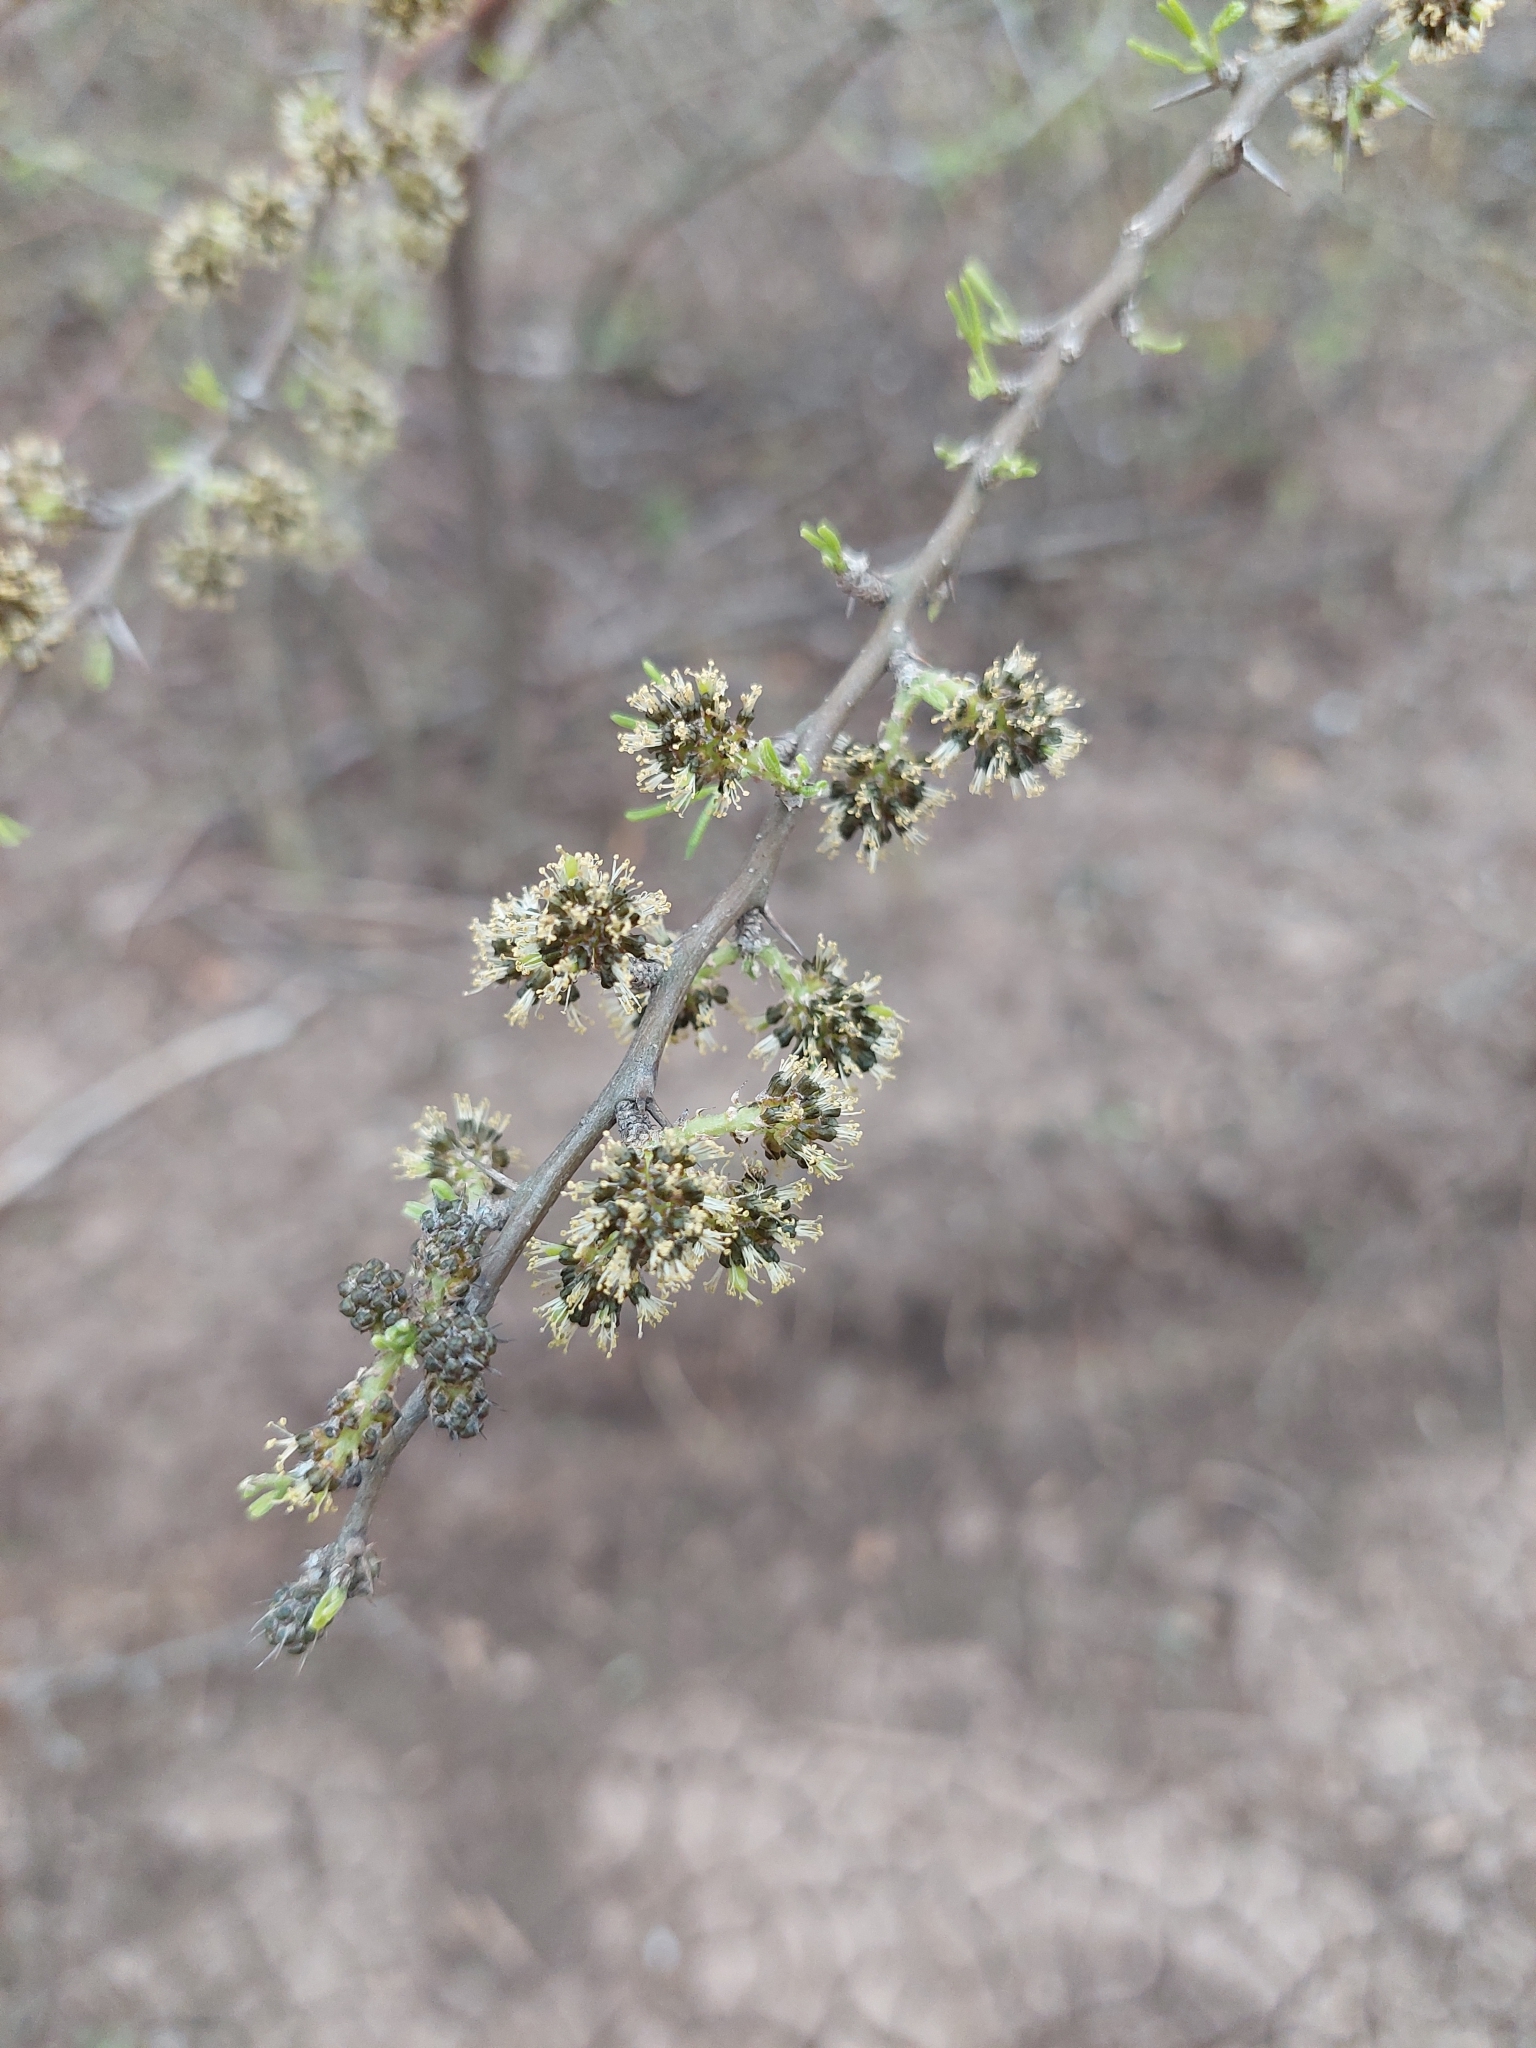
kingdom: Plantae
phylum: Tracheophyta
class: Magnoliopsida
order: Fabales
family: Fabaceae
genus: Mimozyganthus
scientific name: Mimozyganthus carinatus
